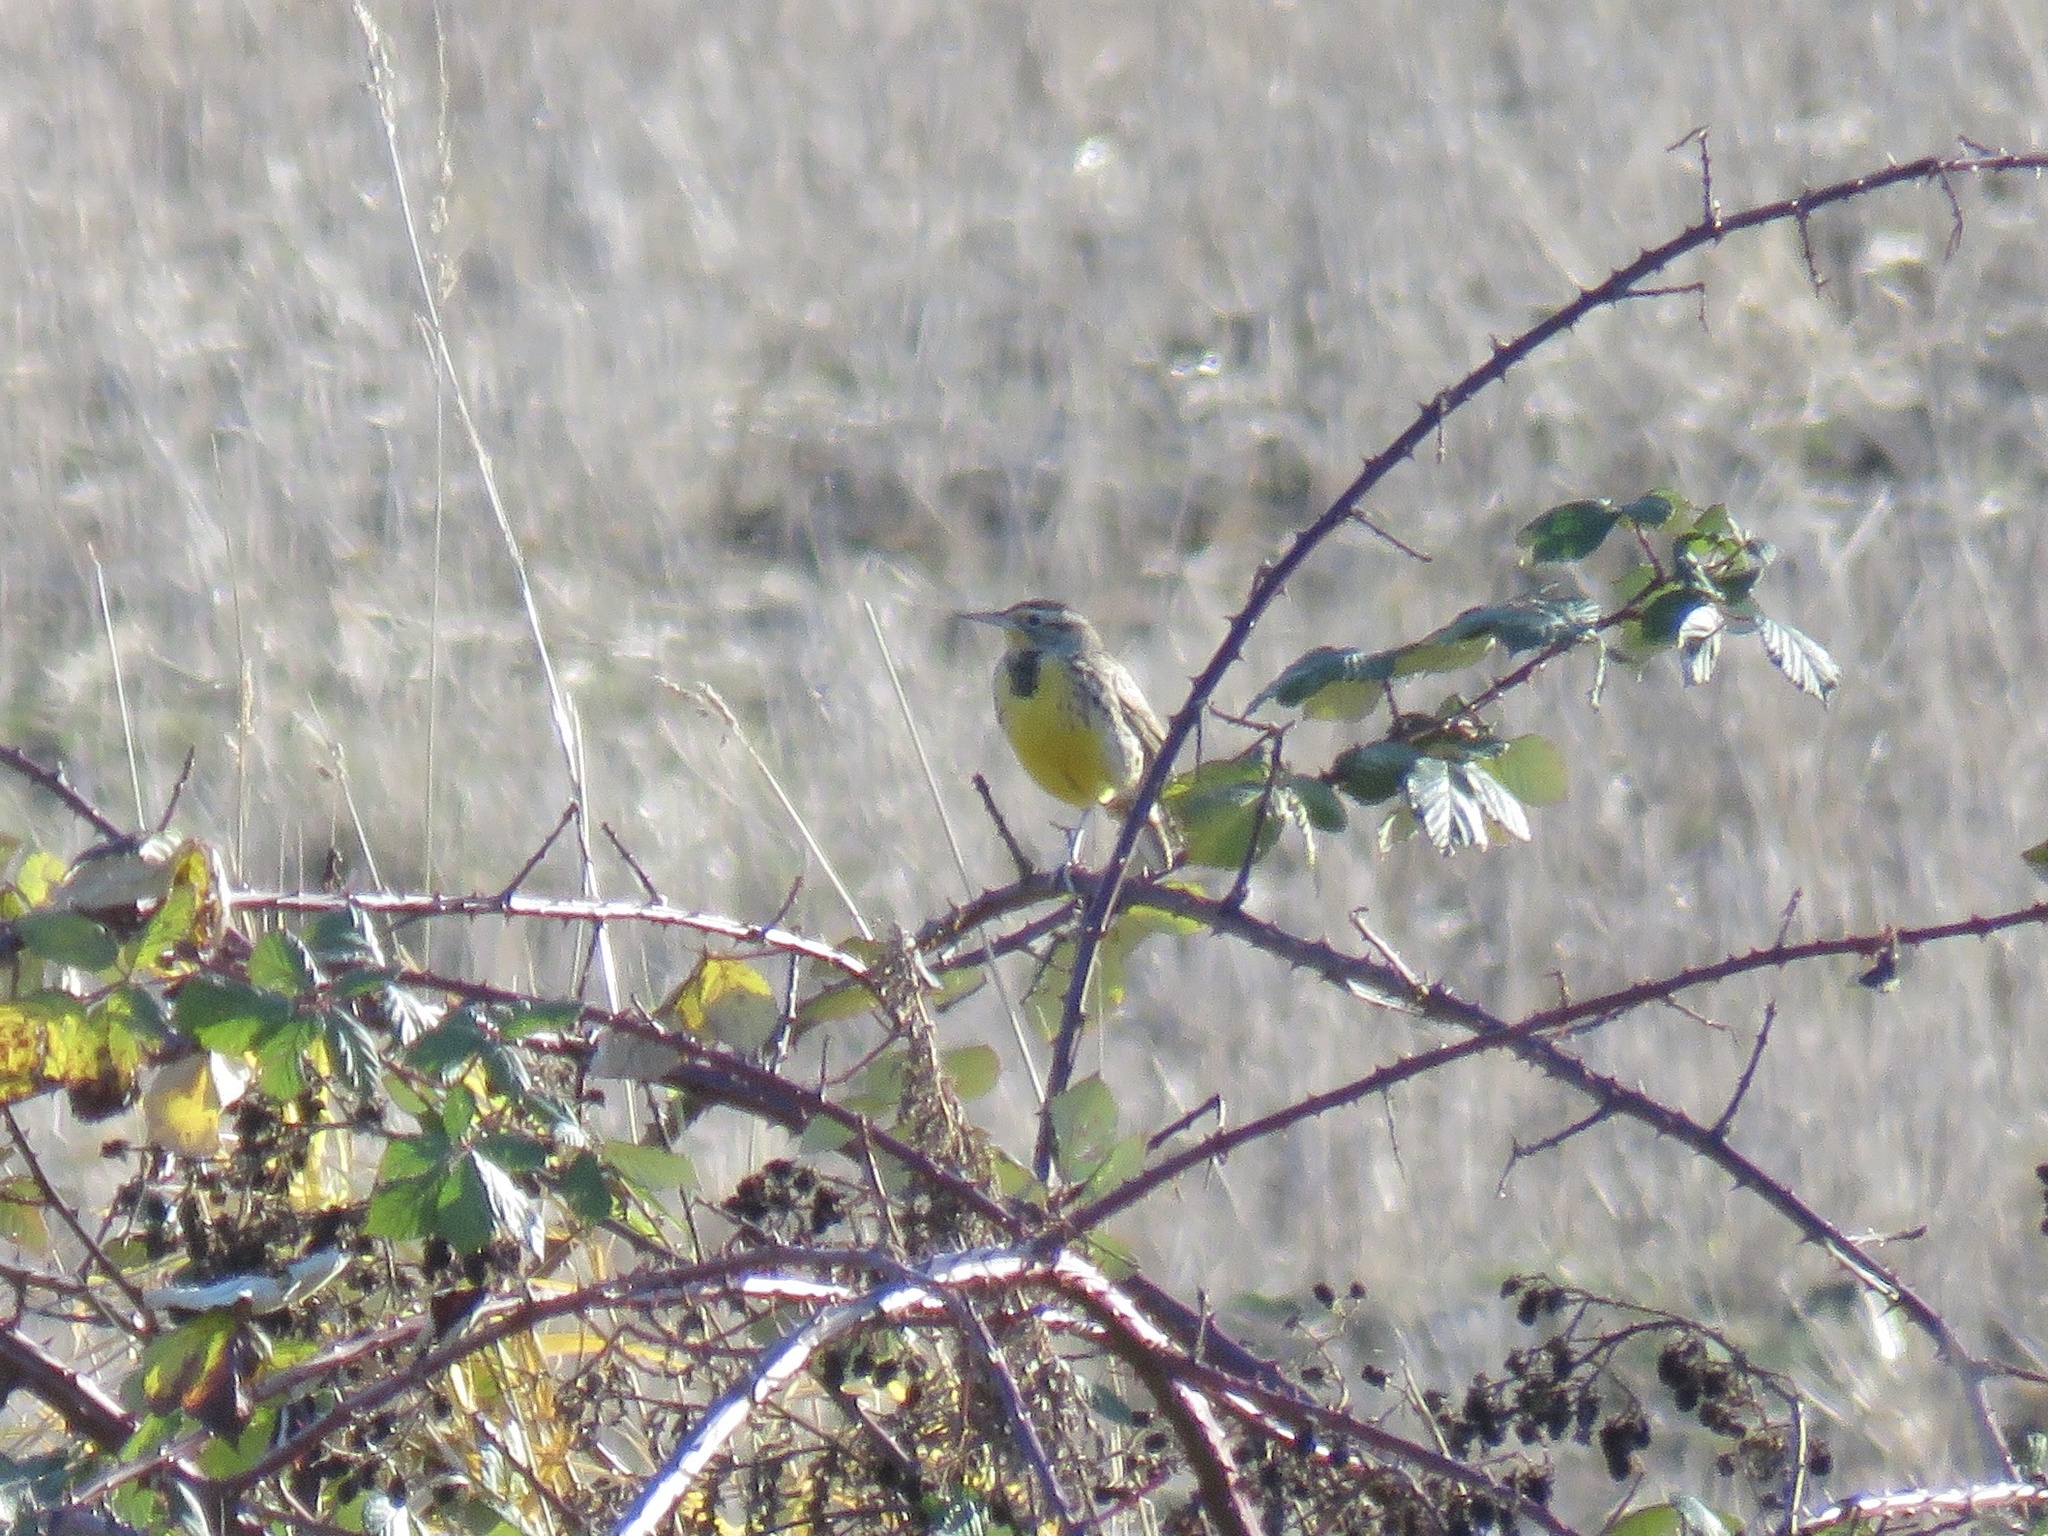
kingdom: Animalia
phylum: Chordata
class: Aves
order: Passeriformes
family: Icteridae
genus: Sturnella
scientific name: Sturnella neglecta
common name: Western meadowlark
